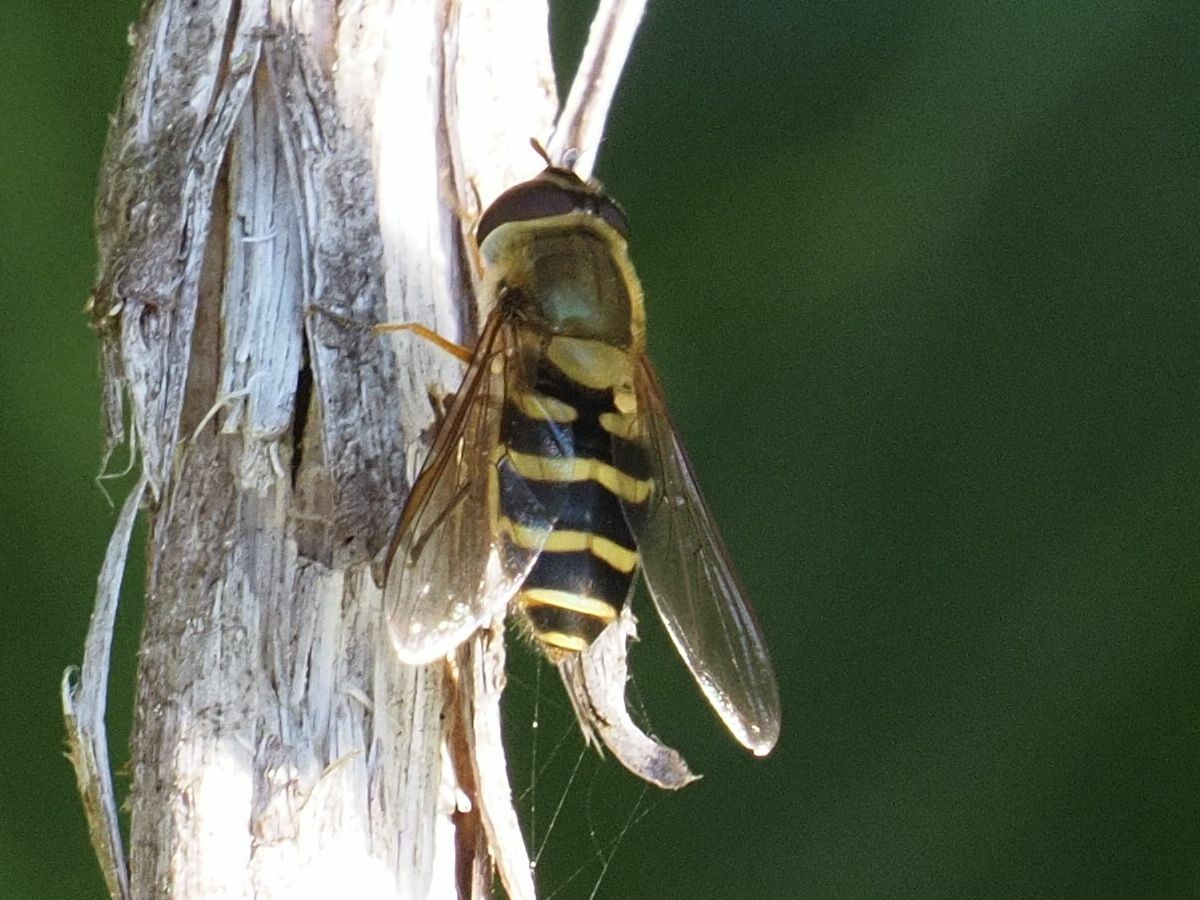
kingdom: Animalia
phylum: Arthropoda
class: Insecta
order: Diptera
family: Syrphidae
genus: Syrphus
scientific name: Syrphus
